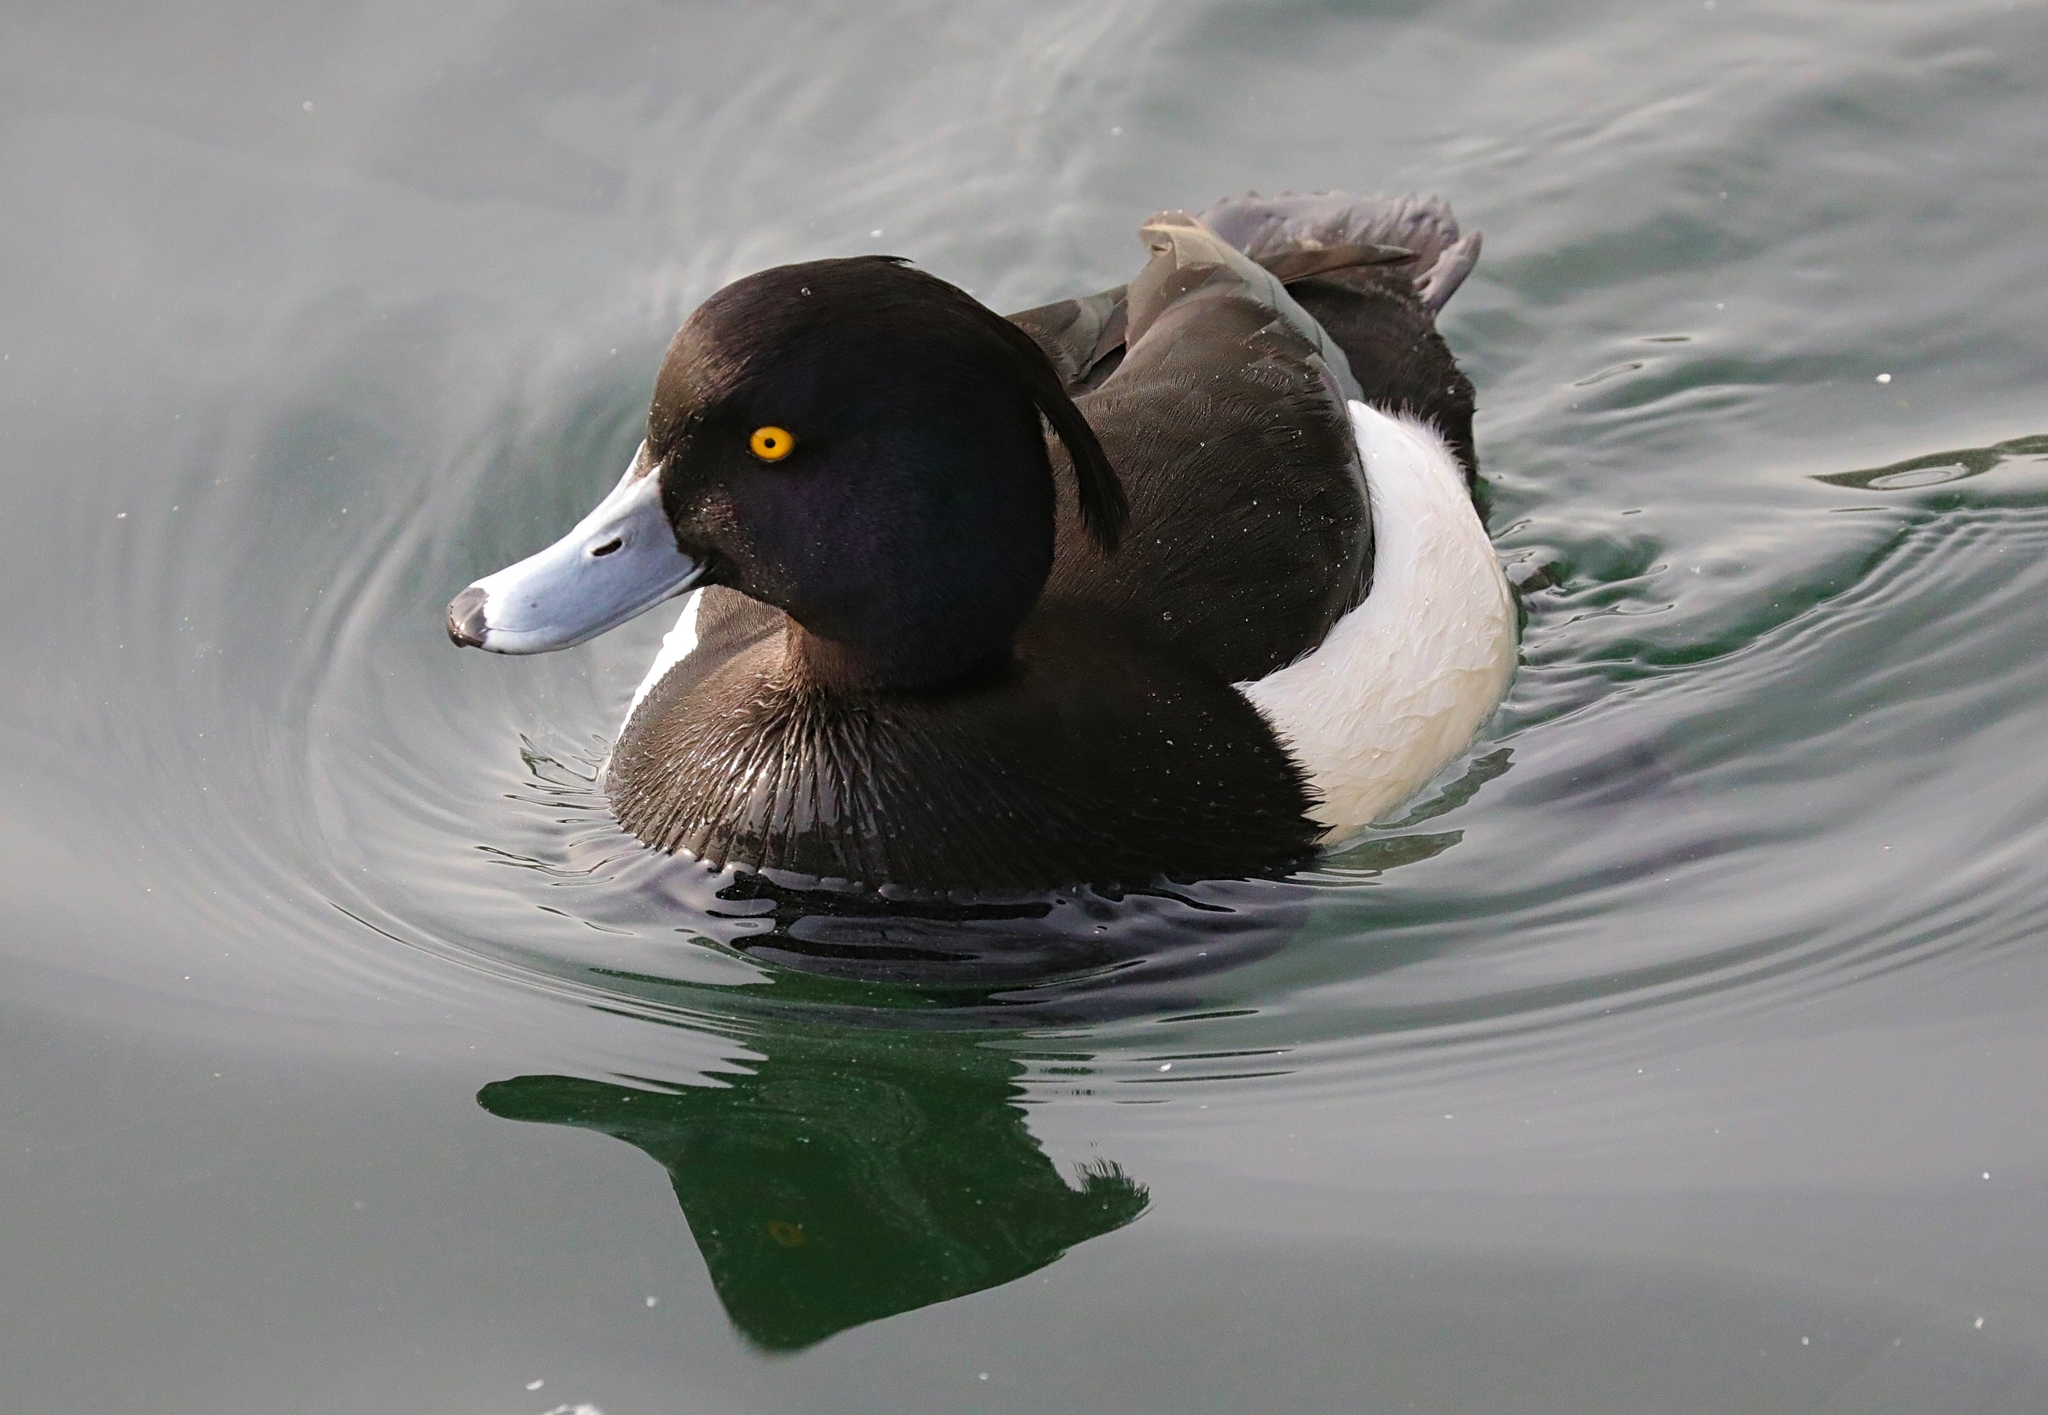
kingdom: Animalia
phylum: Chordata
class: Aves
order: Anseriformes
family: Anatidae
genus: Aythya
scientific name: Aythya fuligula
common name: Tufted duck
